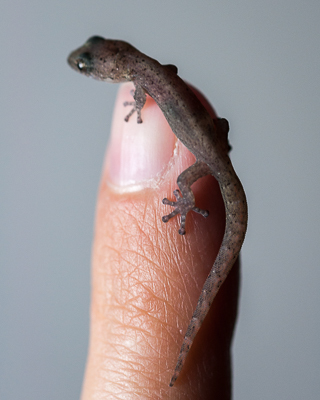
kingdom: Animalia
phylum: Chordata
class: Squamata
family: Gekkonidae
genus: Afrogecko
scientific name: Afrogecko porphyreus
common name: Marbled leaf-toed gecko
